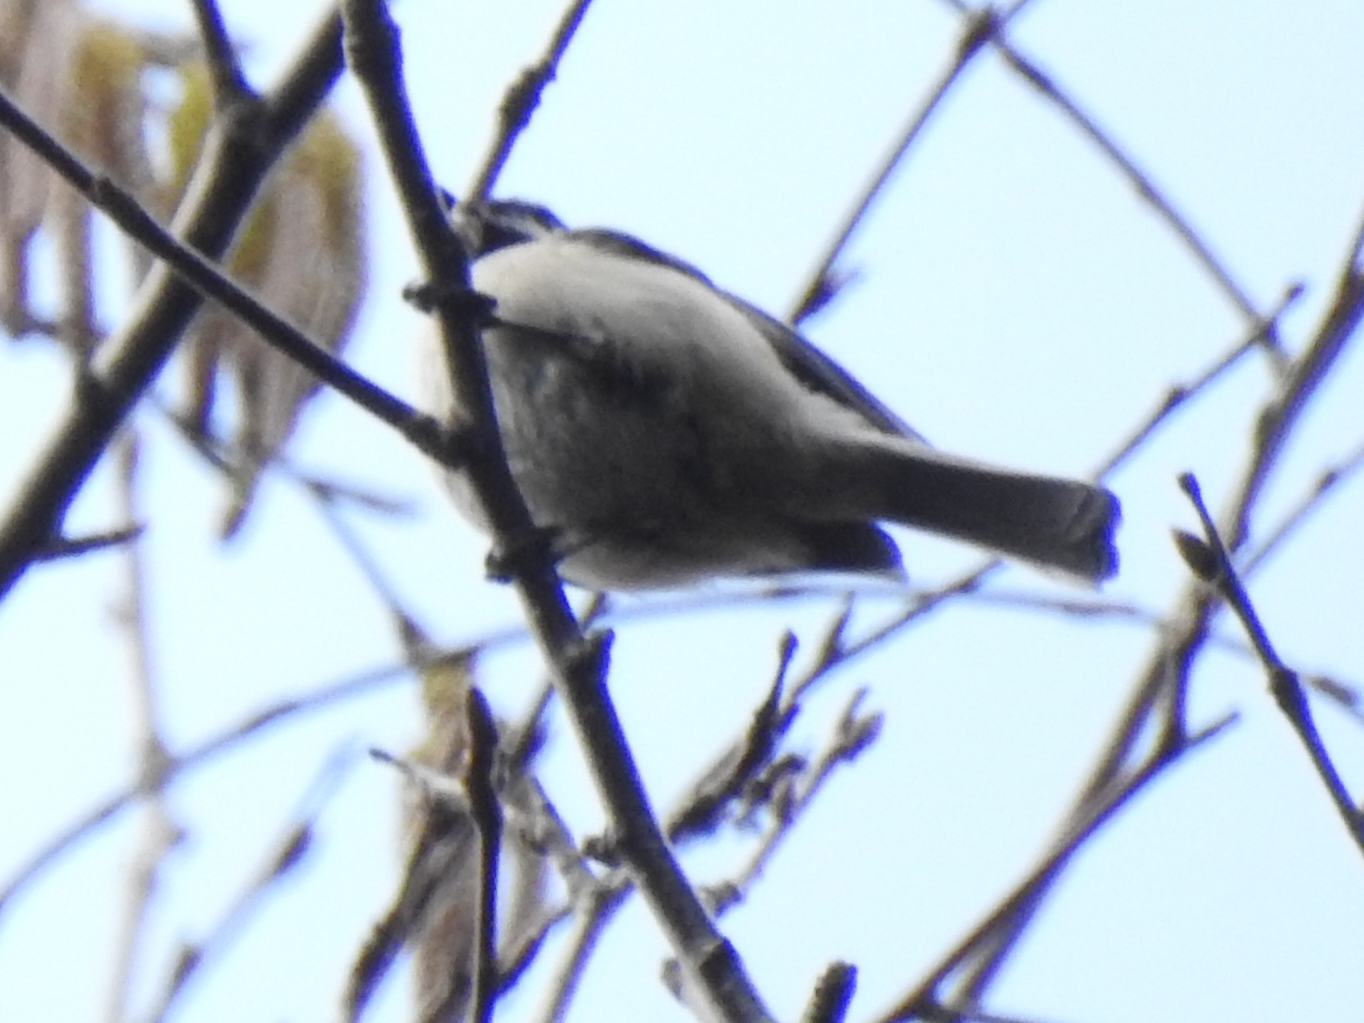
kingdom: Animalia
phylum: Chordata
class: Aves
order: Passeriformes
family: Paridae
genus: Poecile
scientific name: Poecile atricapillus
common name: Black-capped chickadee
